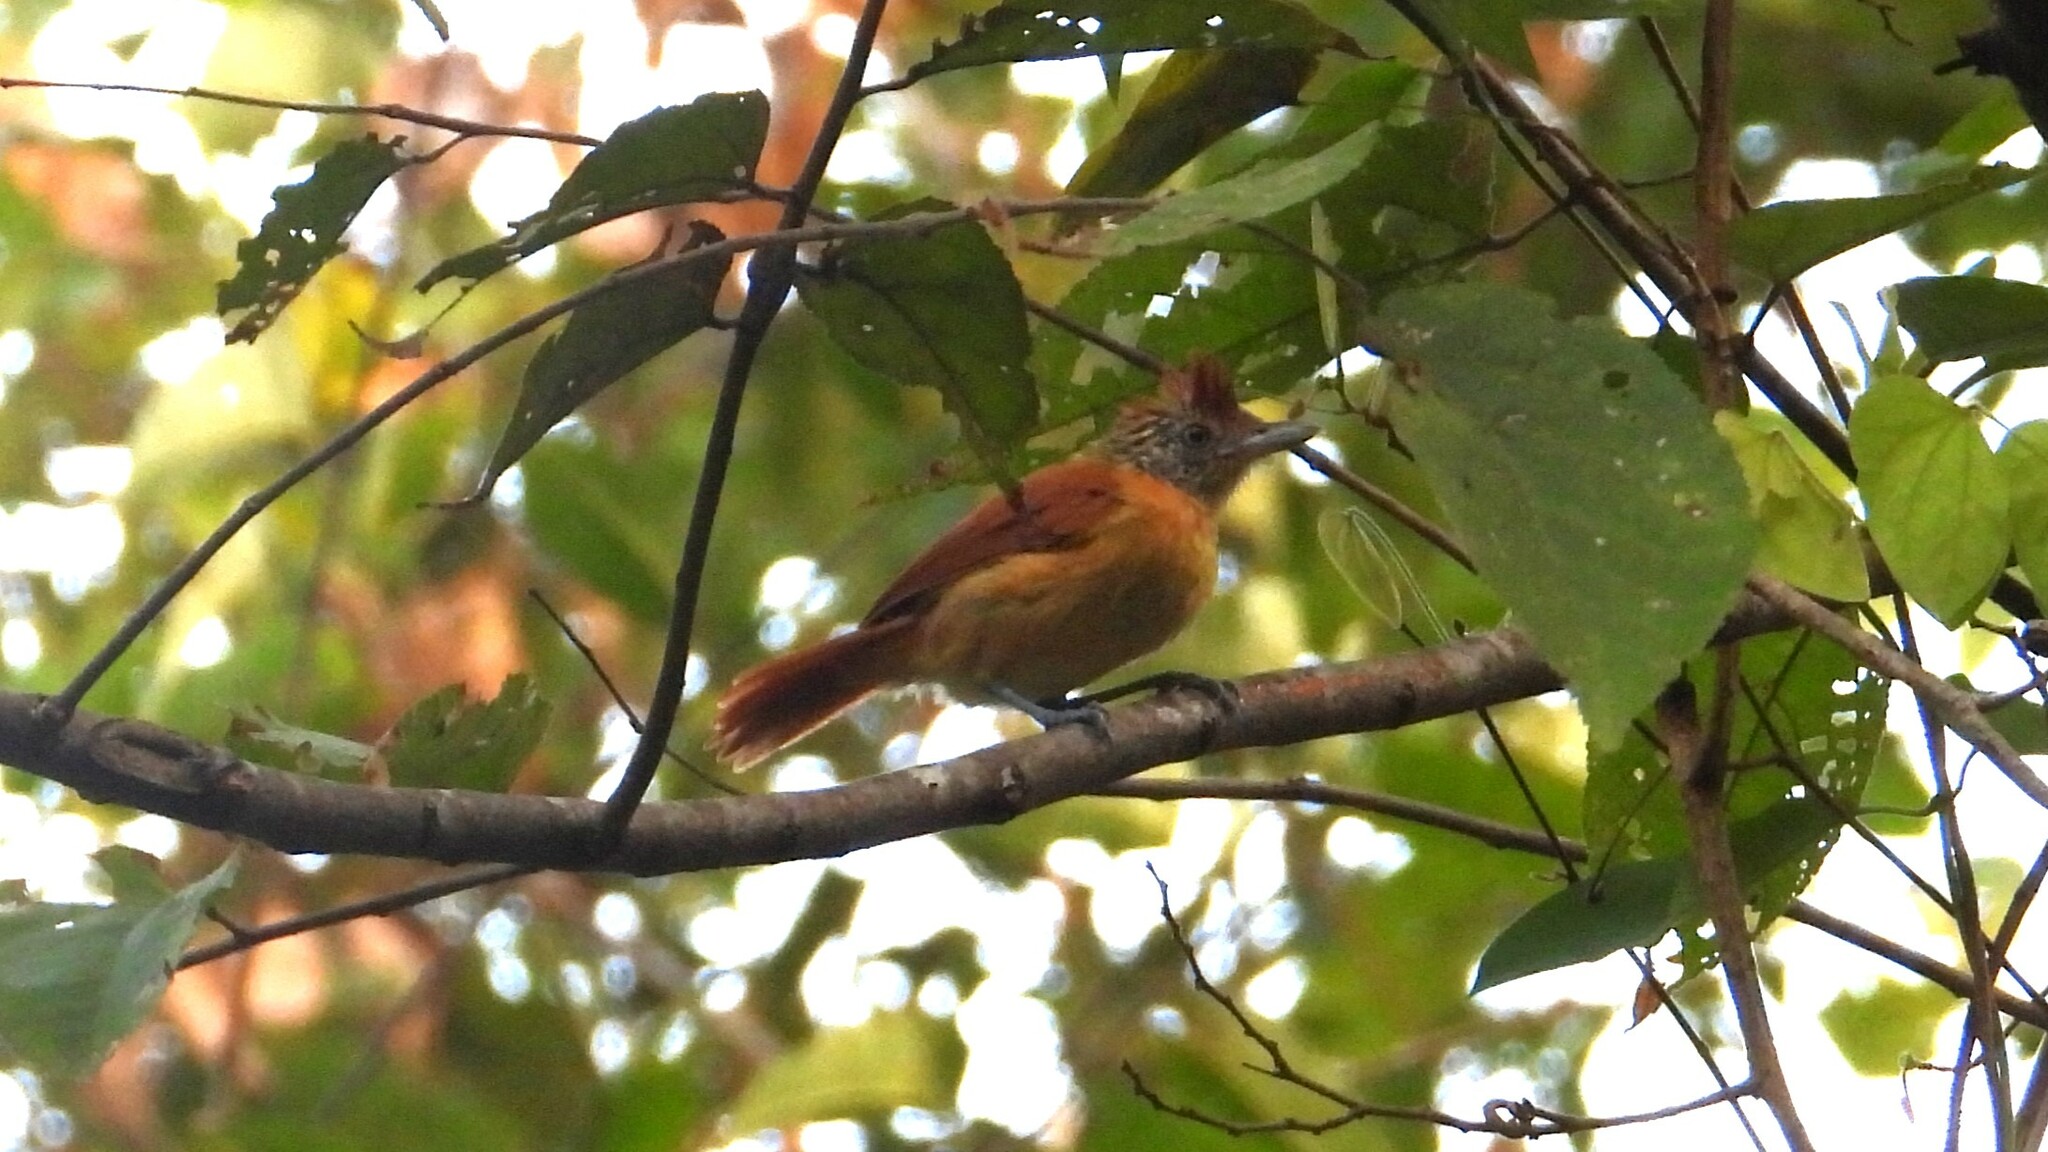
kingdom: Animalia
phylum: Chordata
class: Aves
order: Passeriformes
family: Thamnophilidae
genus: Thamnophilus
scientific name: Thamnophilus doliatus
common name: Barred antshrike
